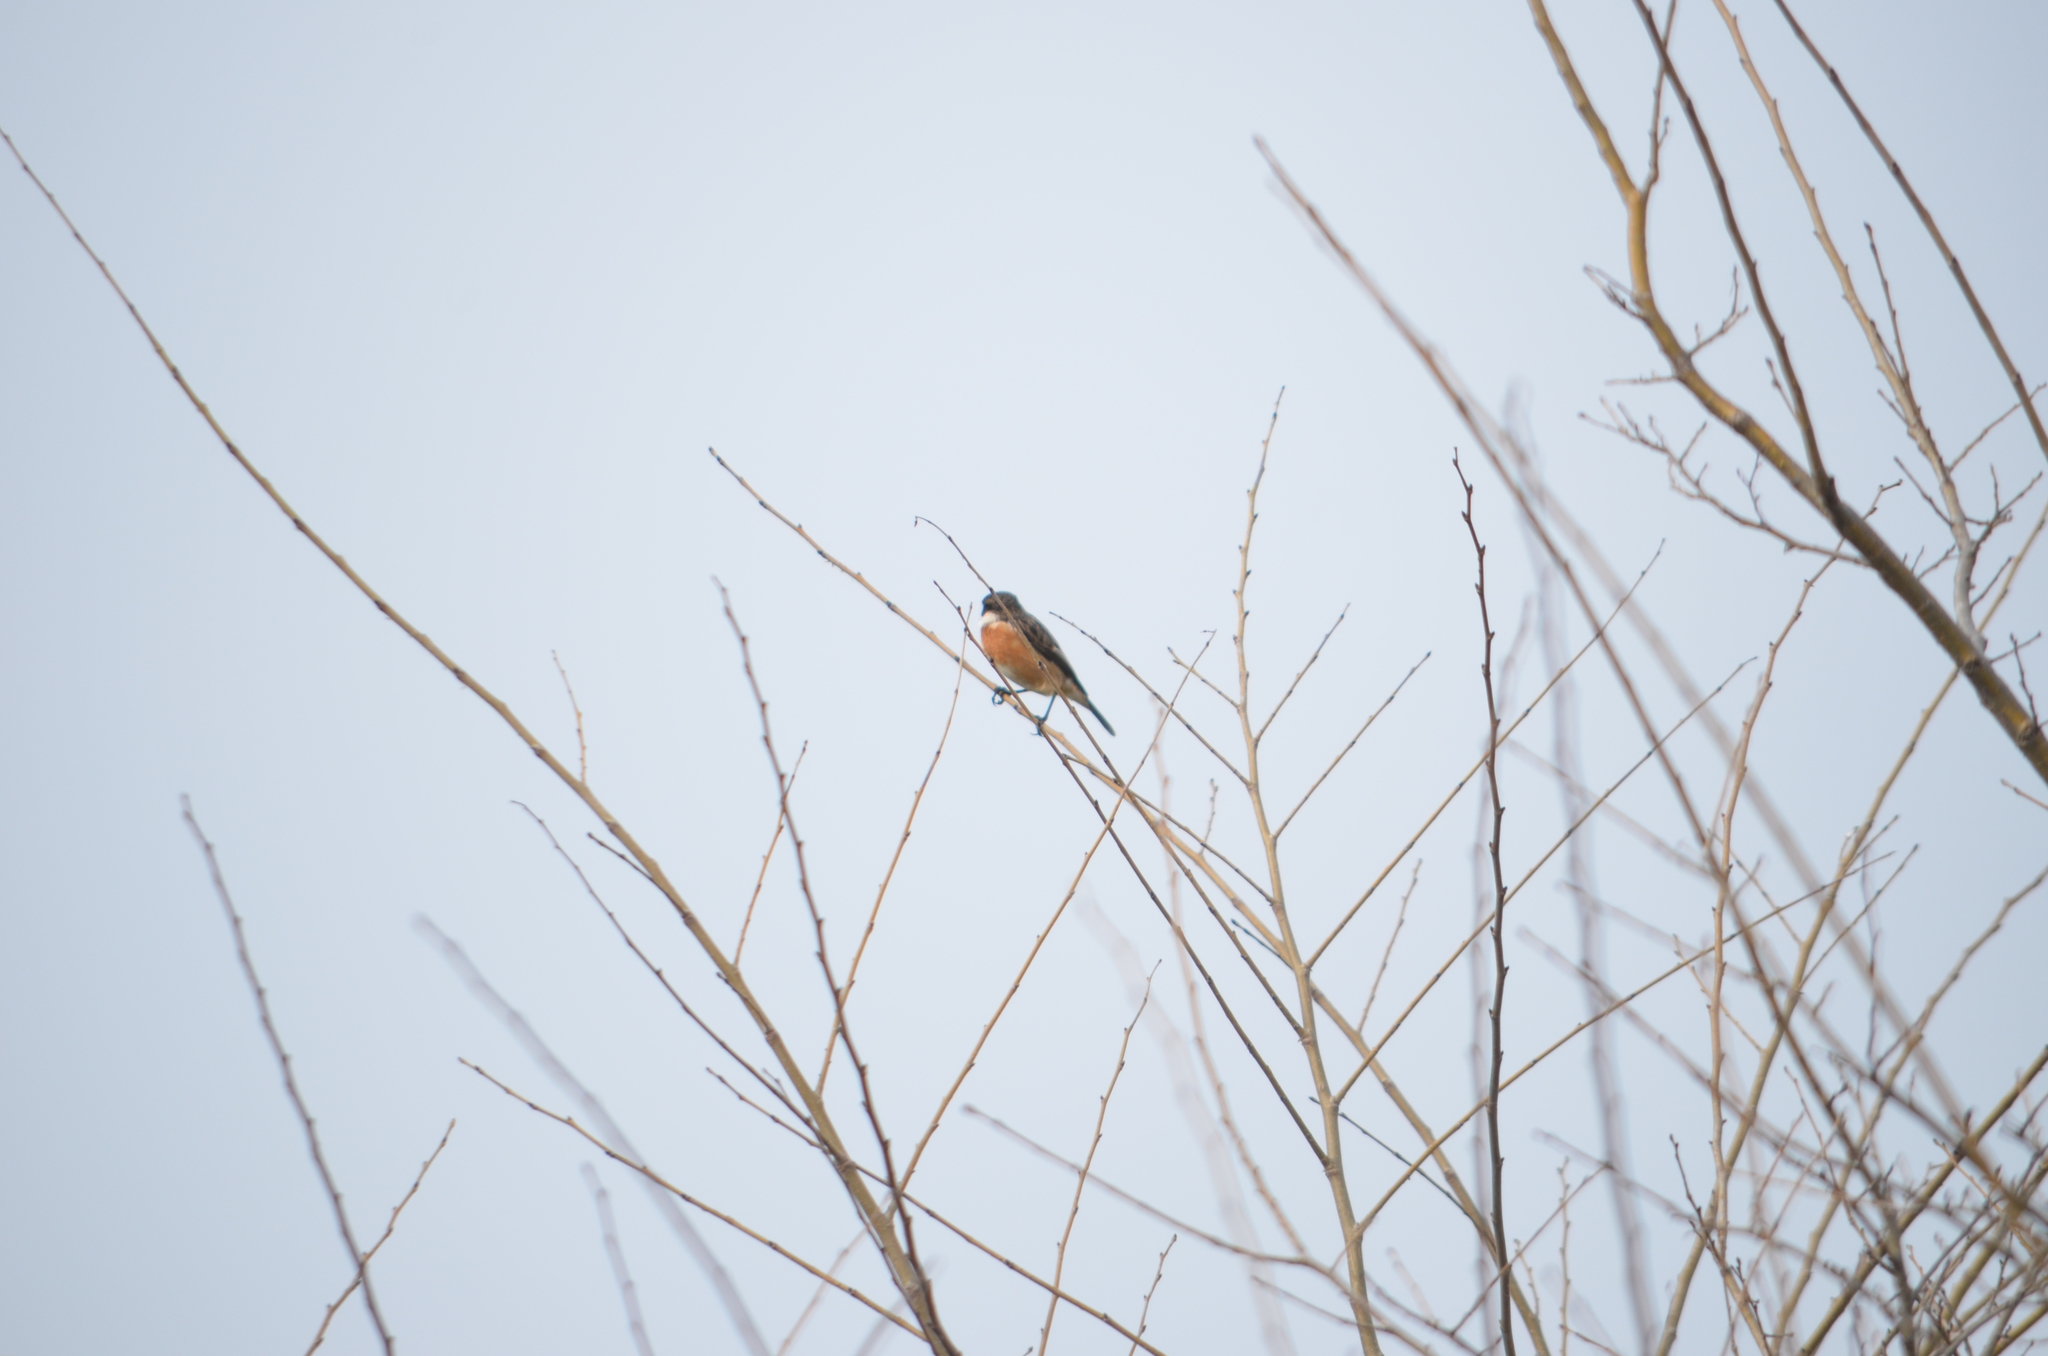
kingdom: Animalia
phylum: Chordata
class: Aves
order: Passeriformes
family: Muscicapidae
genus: Saxicola
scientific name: Saxicola rubicola
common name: European stonechat
